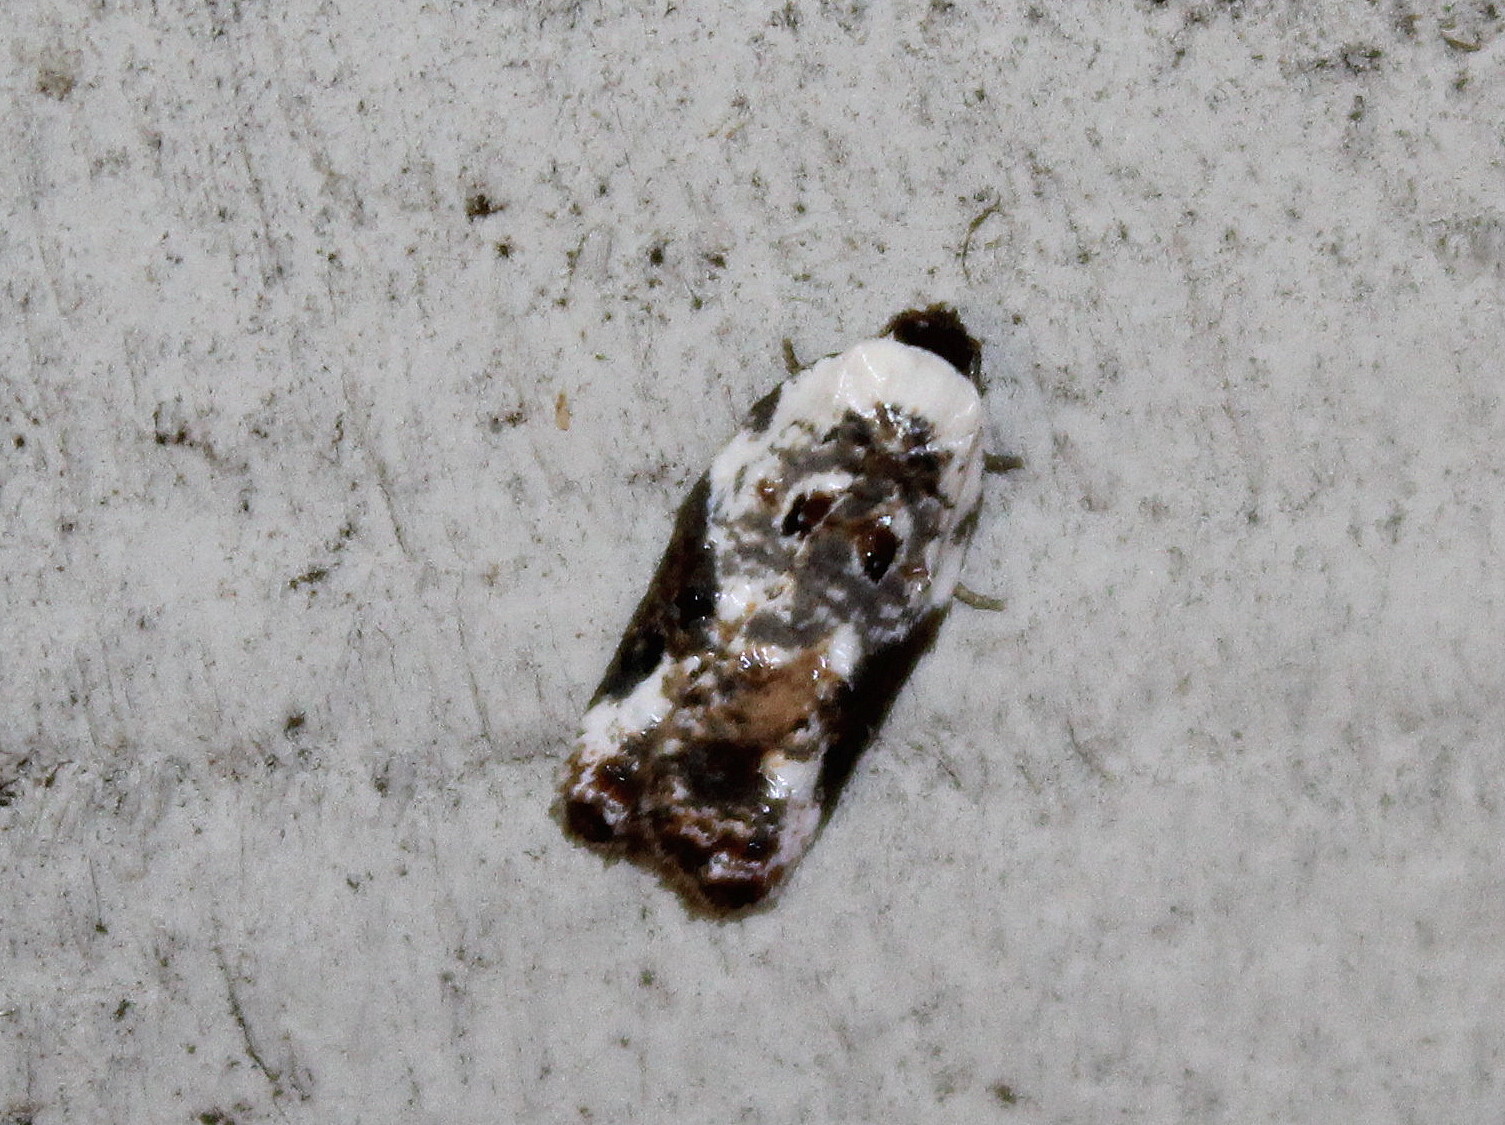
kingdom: Animalia
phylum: Arthropoda
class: Insecta
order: Lepidoptera
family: Tortricidae
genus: Acleris
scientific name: Acleris nivisellana
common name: Snowy-shouldered acleris moth
